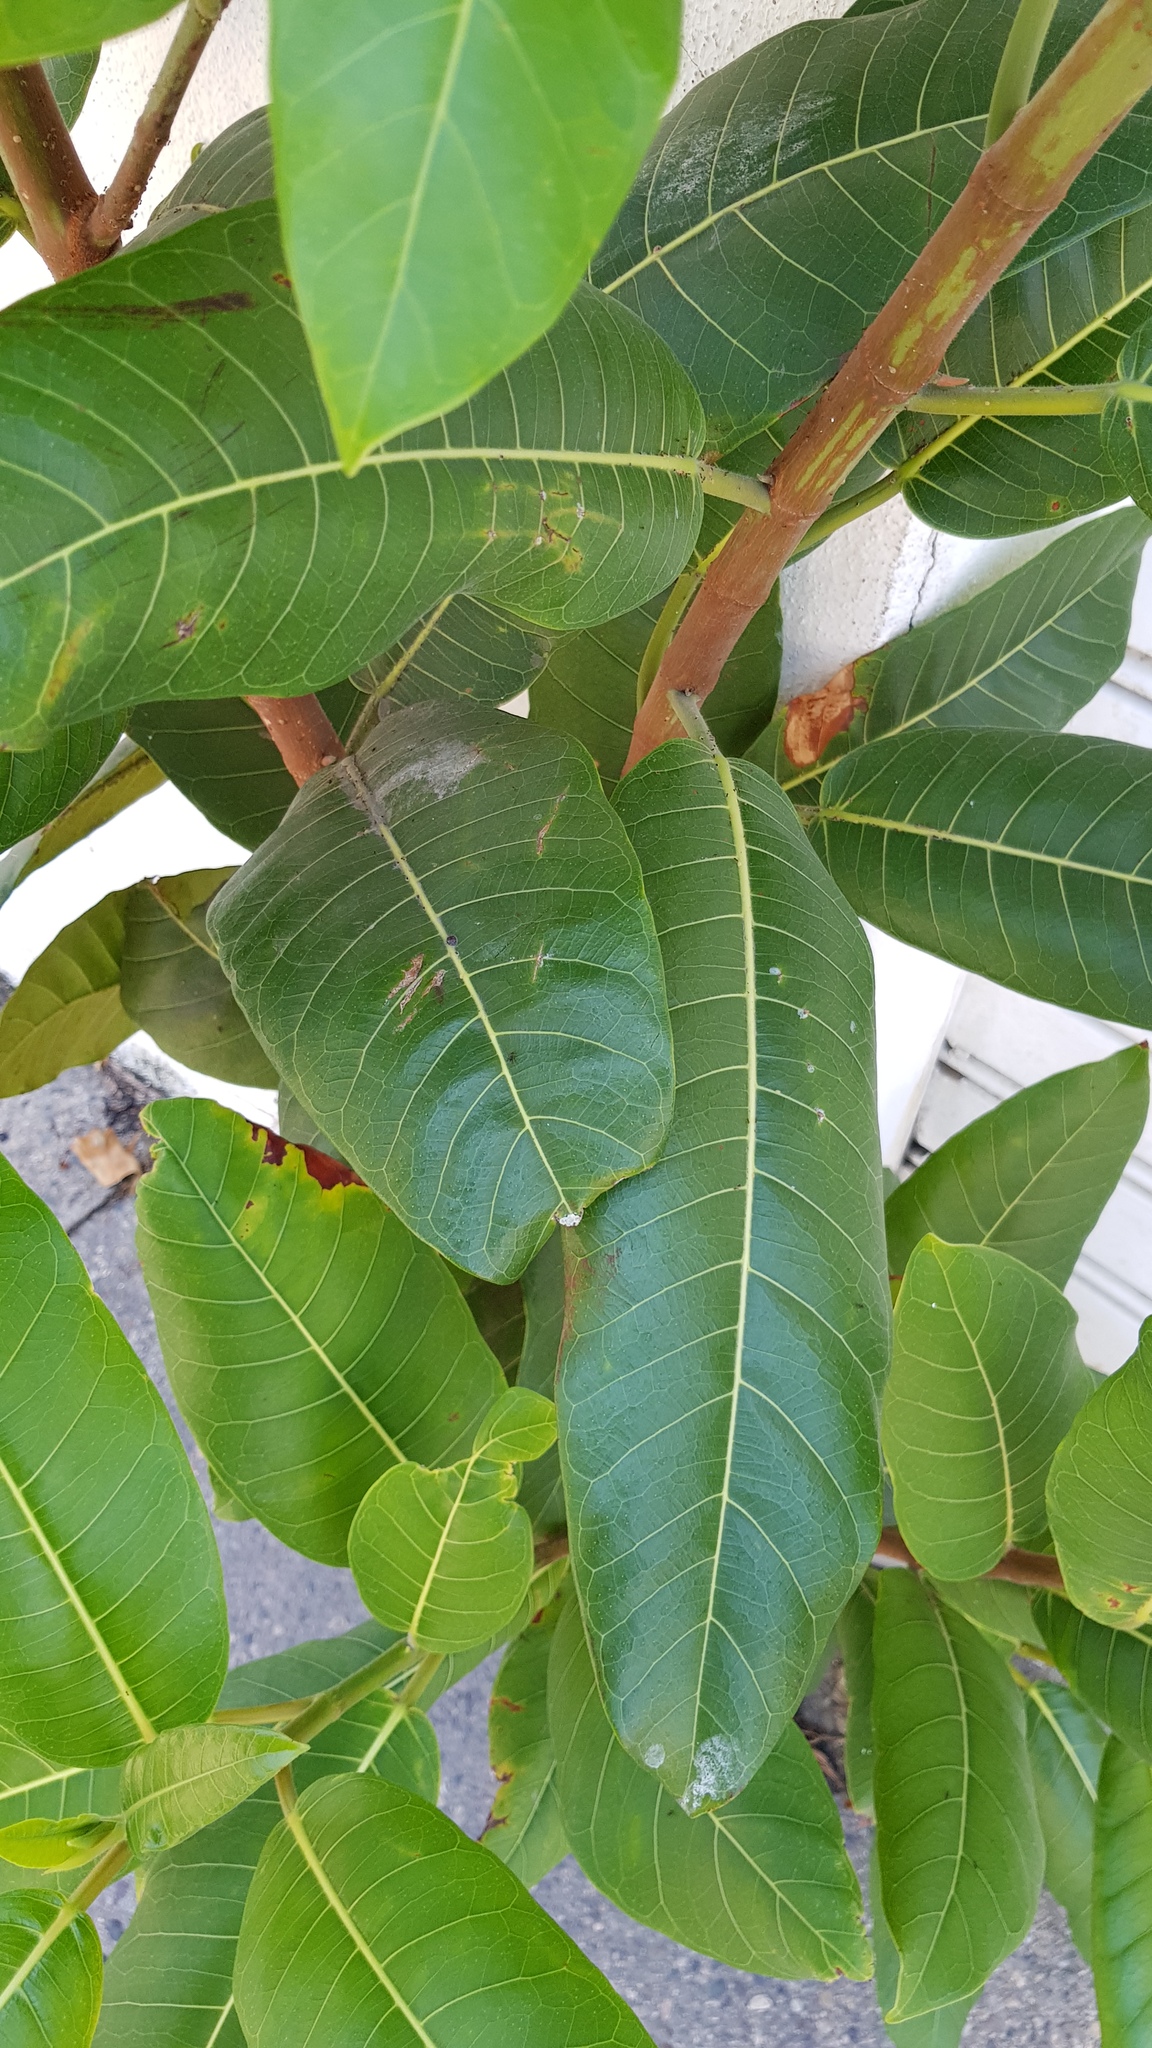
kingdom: Plantae
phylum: Tracheophyta
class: Magnoliopsida
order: Rosales
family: Moraceae
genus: Ficus
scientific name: Ficus aurea
